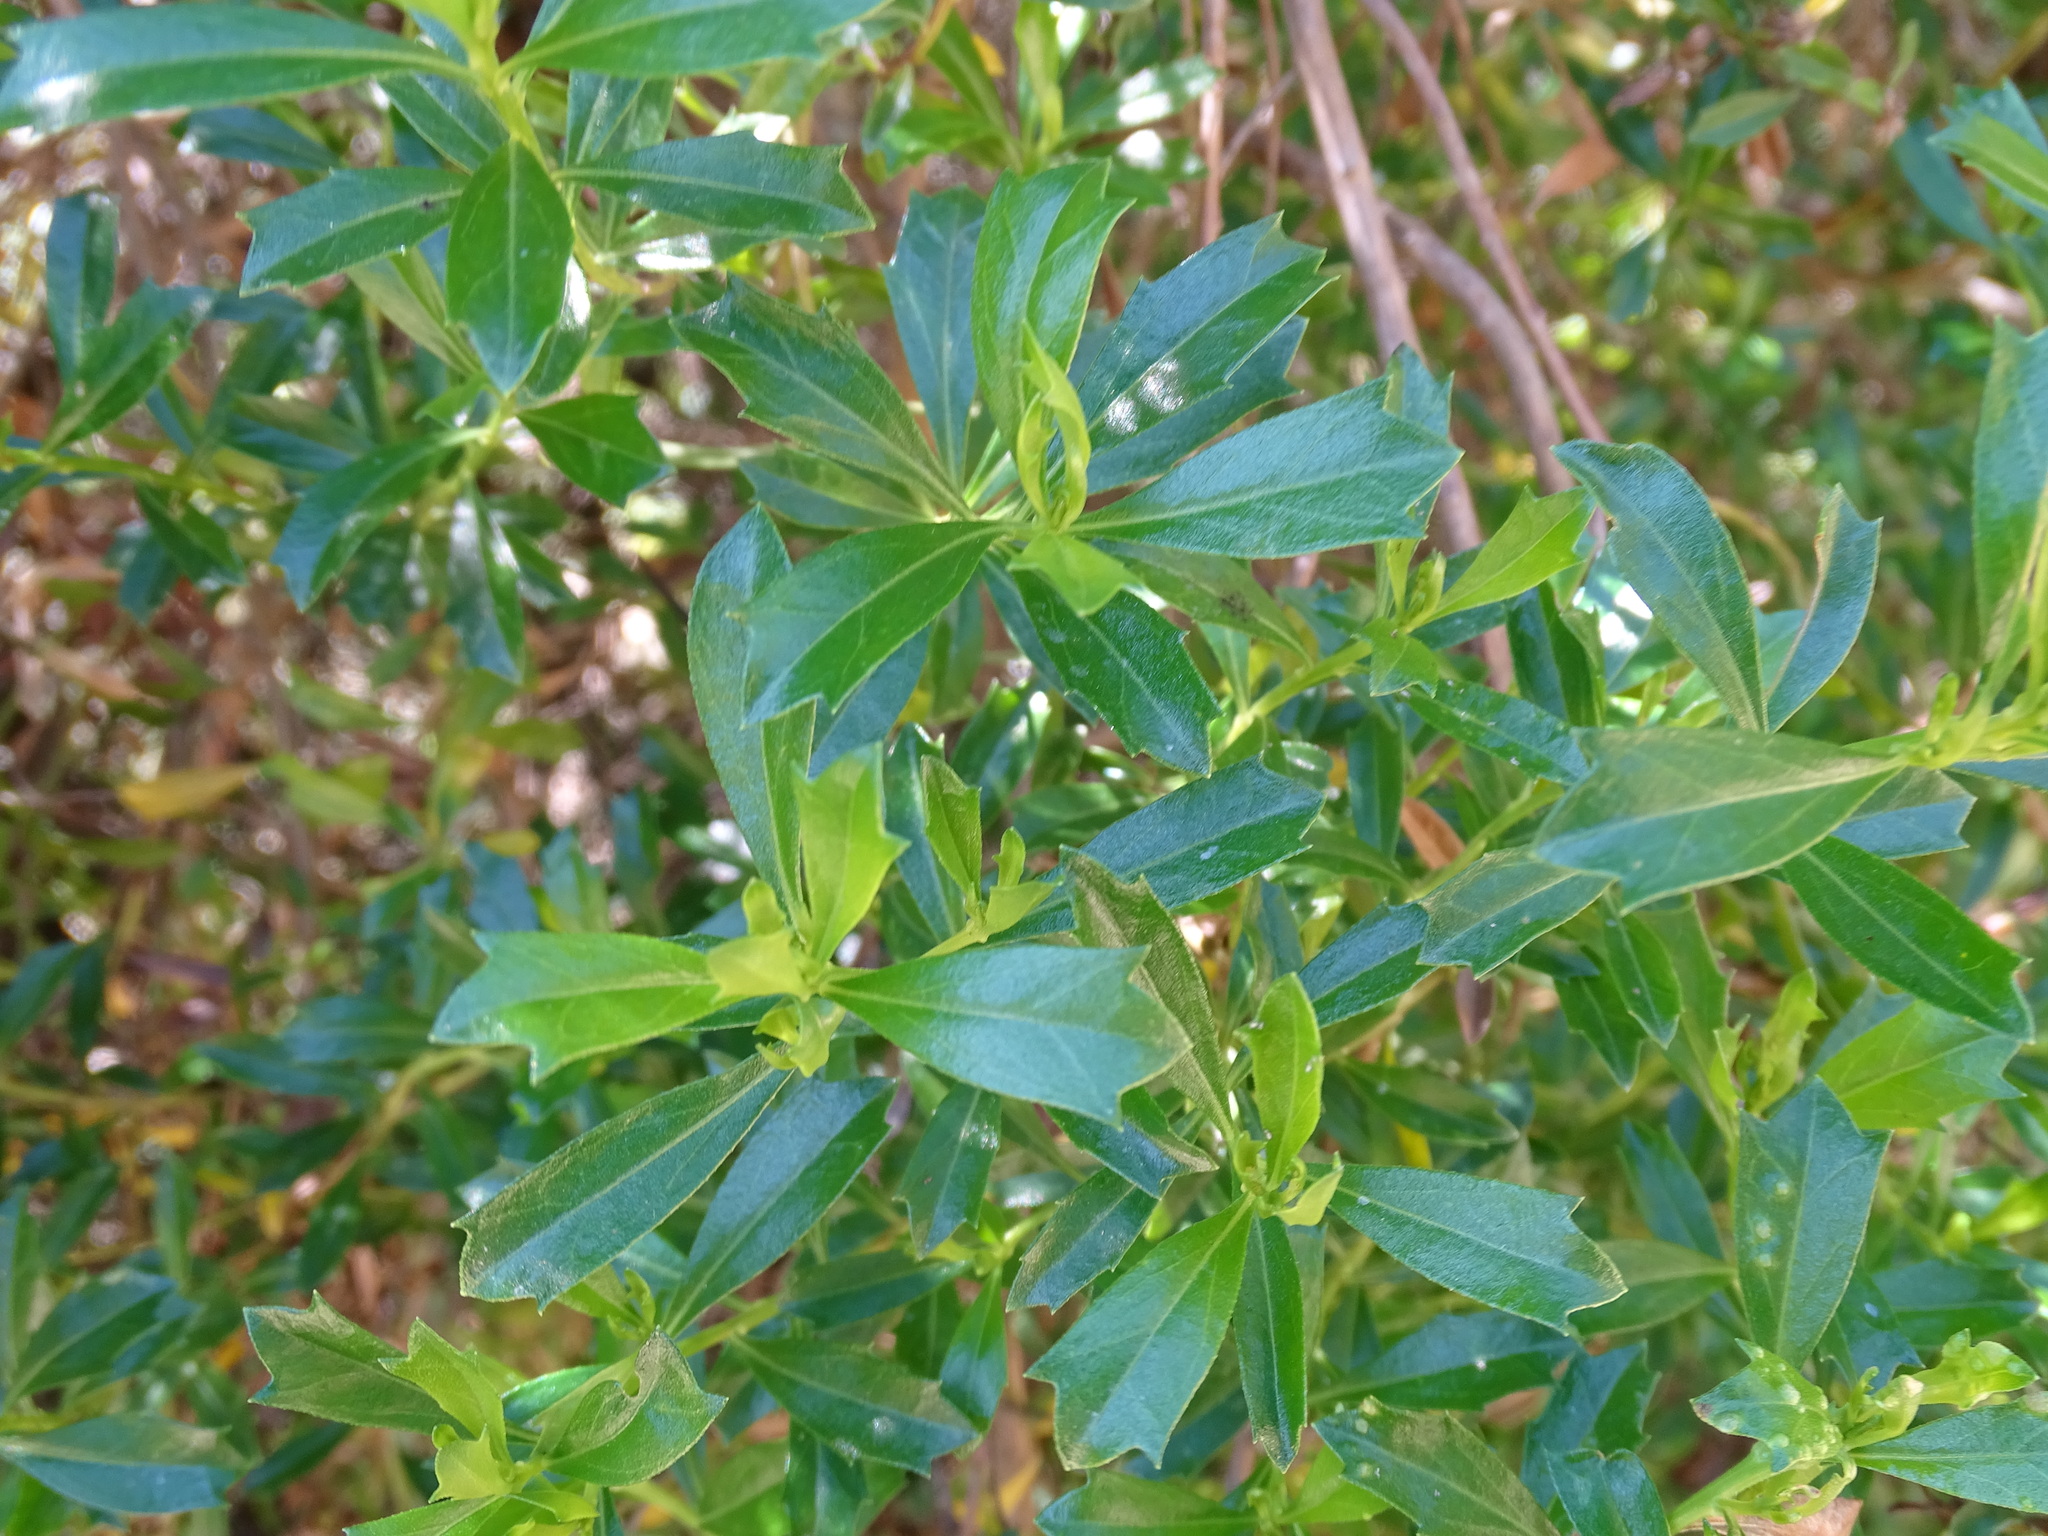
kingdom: Plantae
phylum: Tracheophyta
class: Magnoliopsida
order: Asterales
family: Asteraceae
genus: Baccharis
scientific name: Baccharis conferta
